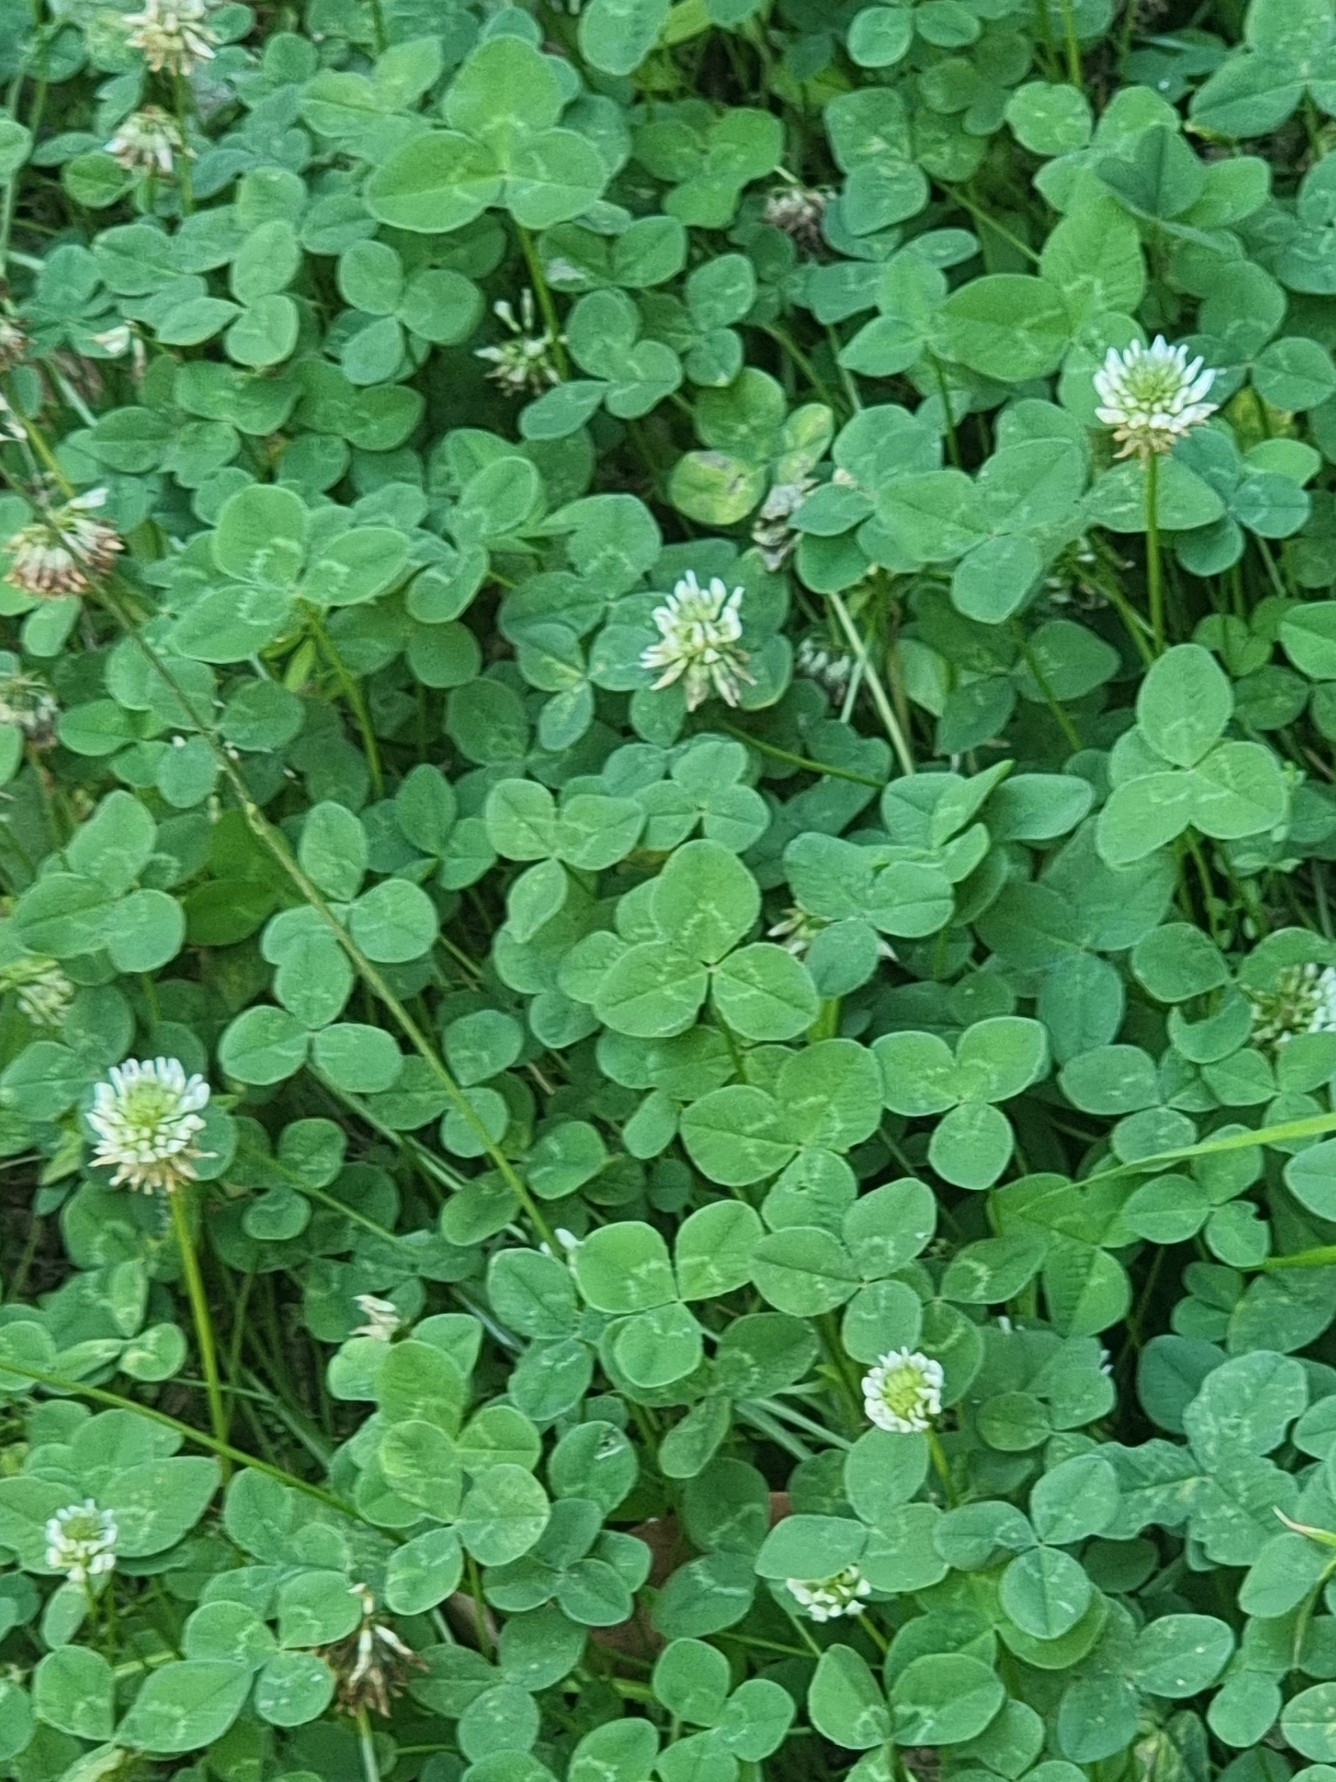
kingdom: Plantae
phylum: Tracheophyta
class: Magnoliopsida
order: Fabales
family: Fabaceae
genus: Trifolium
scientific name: Trifolium repens
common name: White clover
